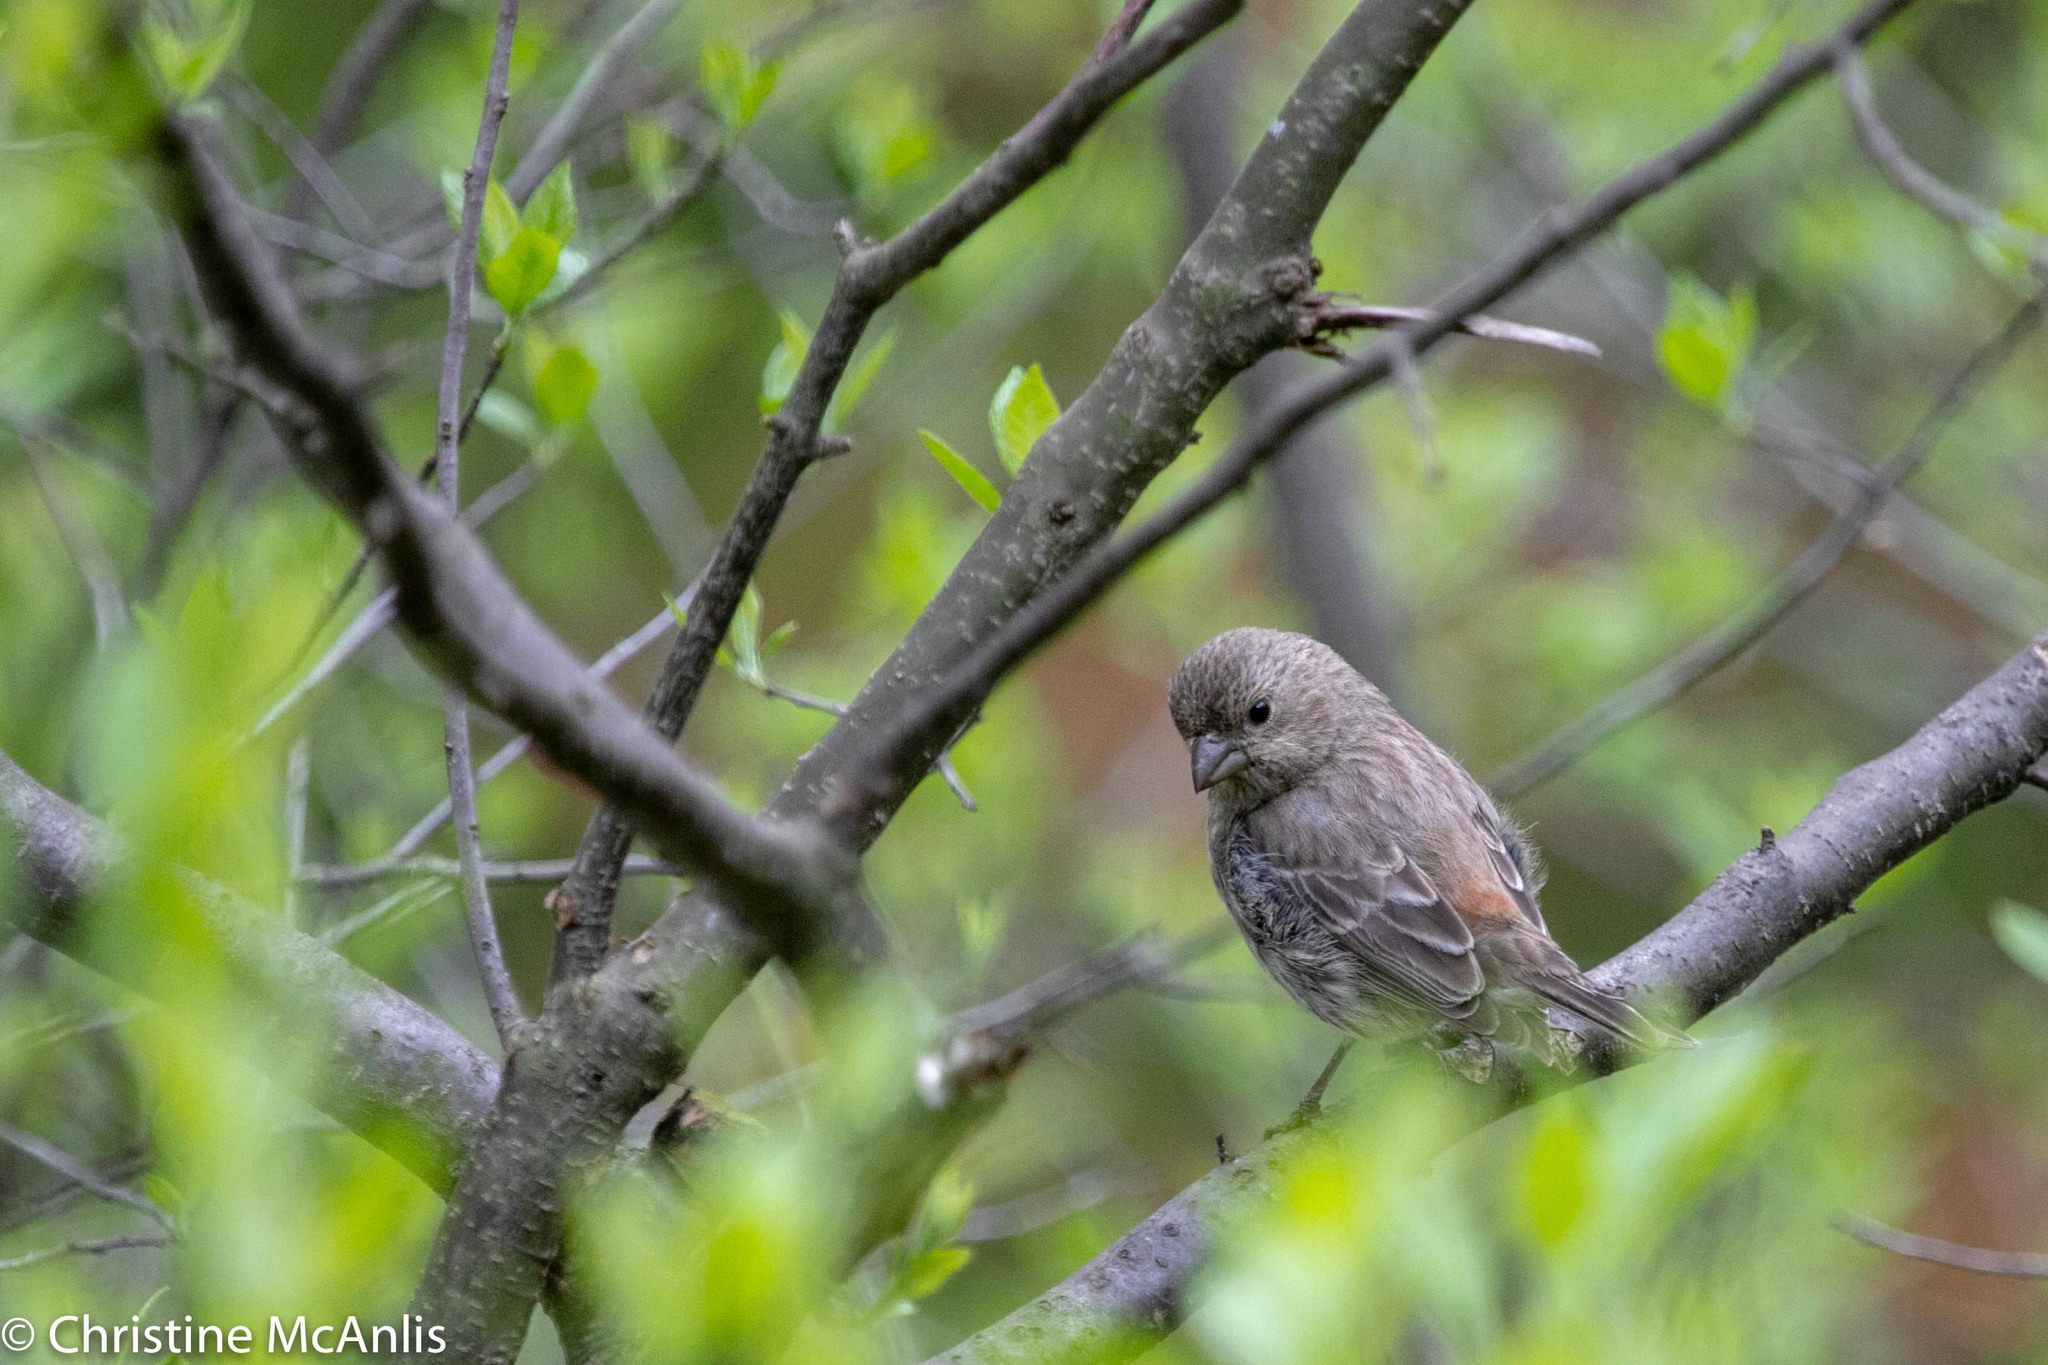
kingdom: Animalia
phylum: Chordata
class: Aves
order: Passeriformes
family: Fringillidae
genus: Haemorhous
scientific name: Haemorhous mexicanus
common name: House finch
